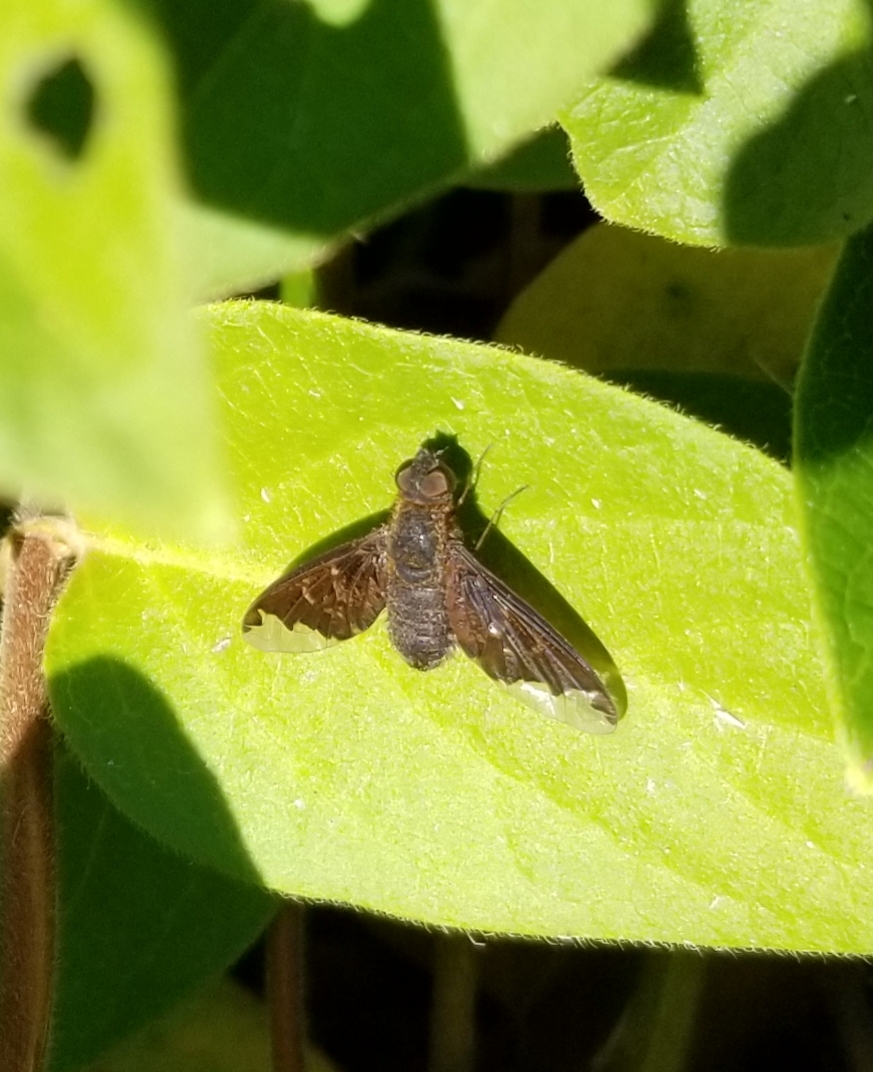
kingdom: Animalia
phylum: Arthropoda
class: Insecta
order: Diptera
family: Bombyliidae
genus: Hemipenthes
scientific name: Hemipenthes sinuosus
